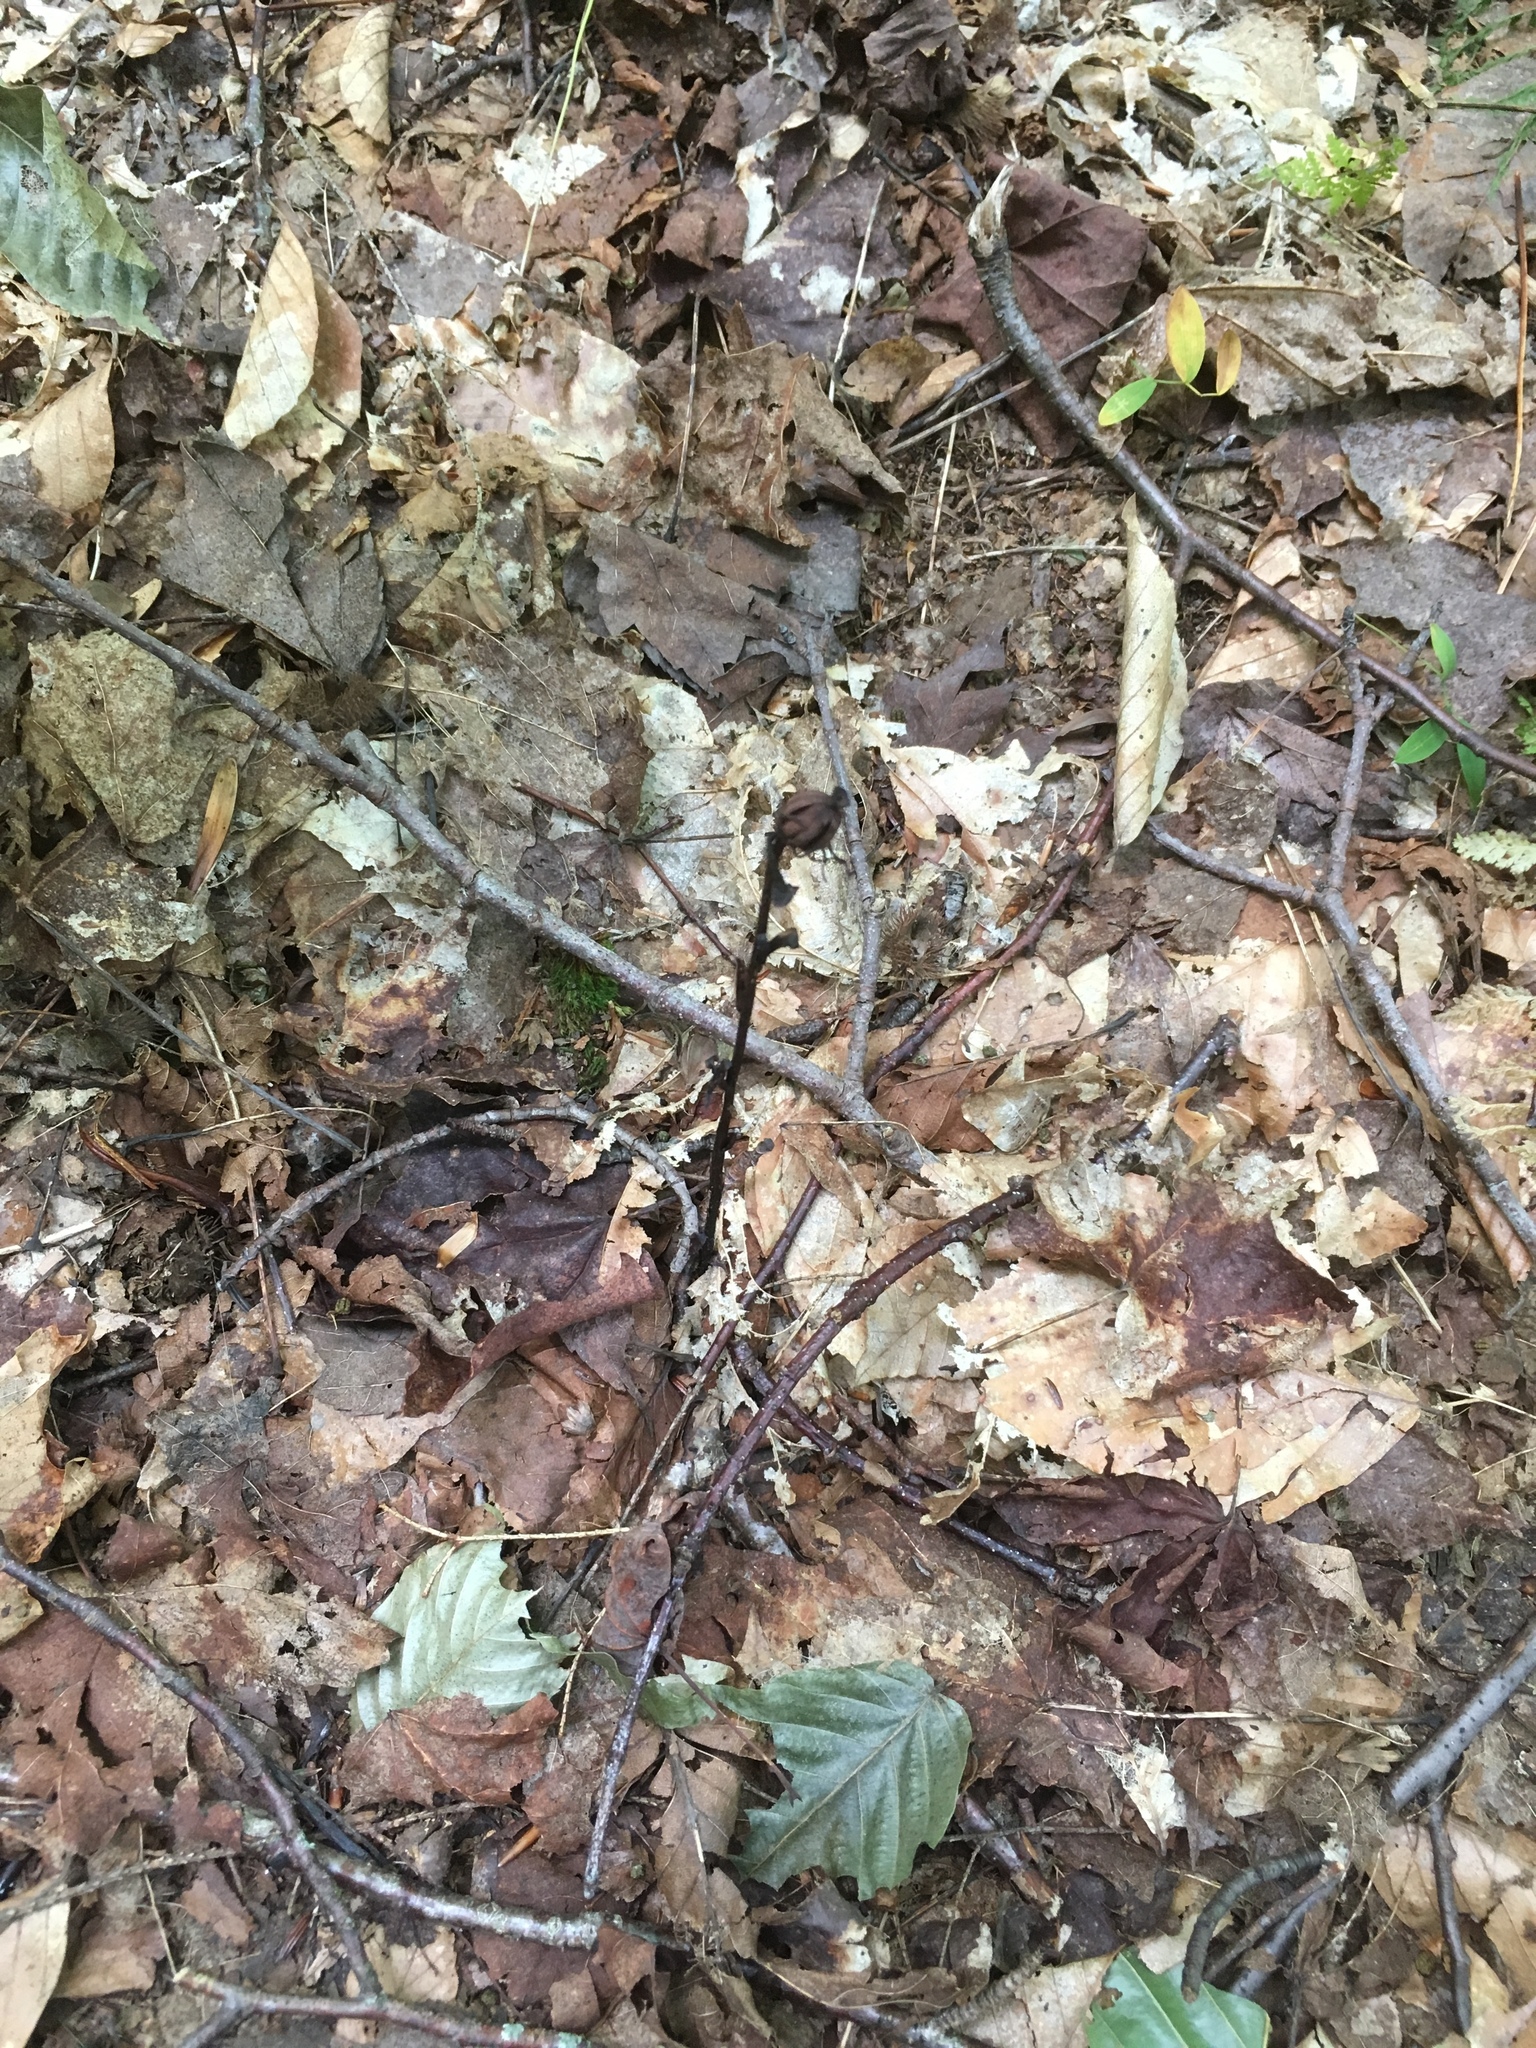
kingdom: Plantae
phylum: Tracheophyta
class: Magnoliopsida
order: Ericales
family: Ericaceae
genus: Monotropa
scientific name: Monotropa uniflora
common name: Convulsion root
